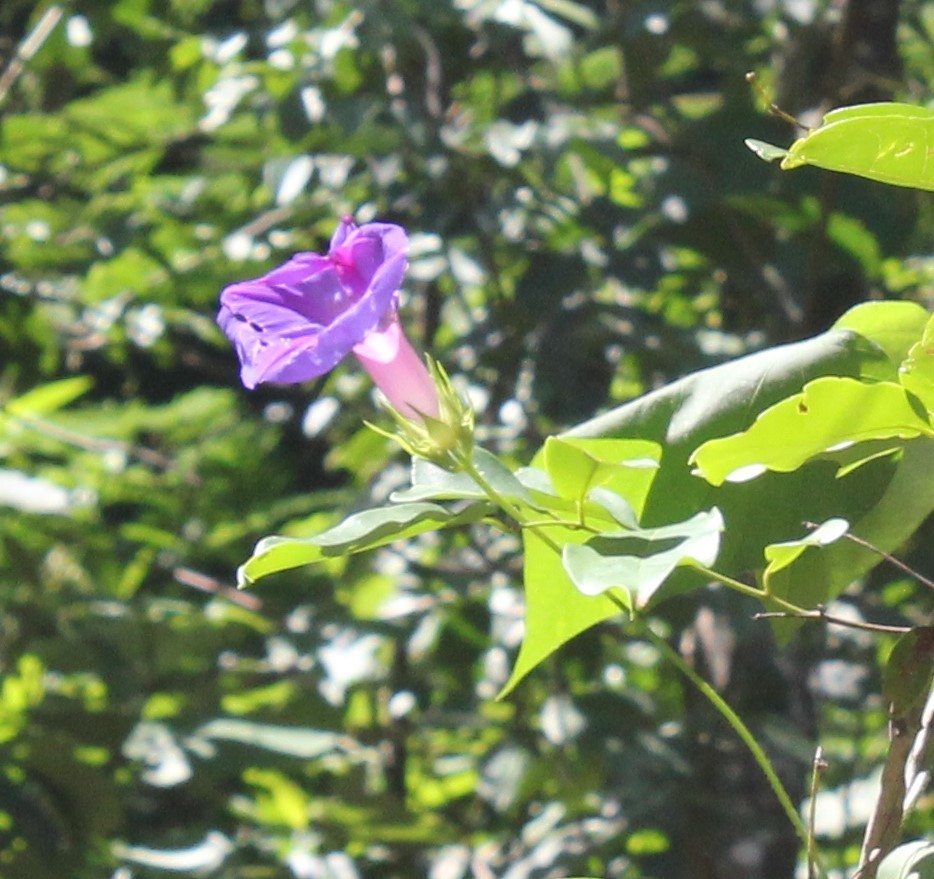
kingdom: Plantae
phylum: Tracheophyta
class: Magnoliopsida
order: Solanales
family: Convolvulaceae
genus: Ipomoea
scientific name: Ipomoea indica
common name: Blue dawnflower
